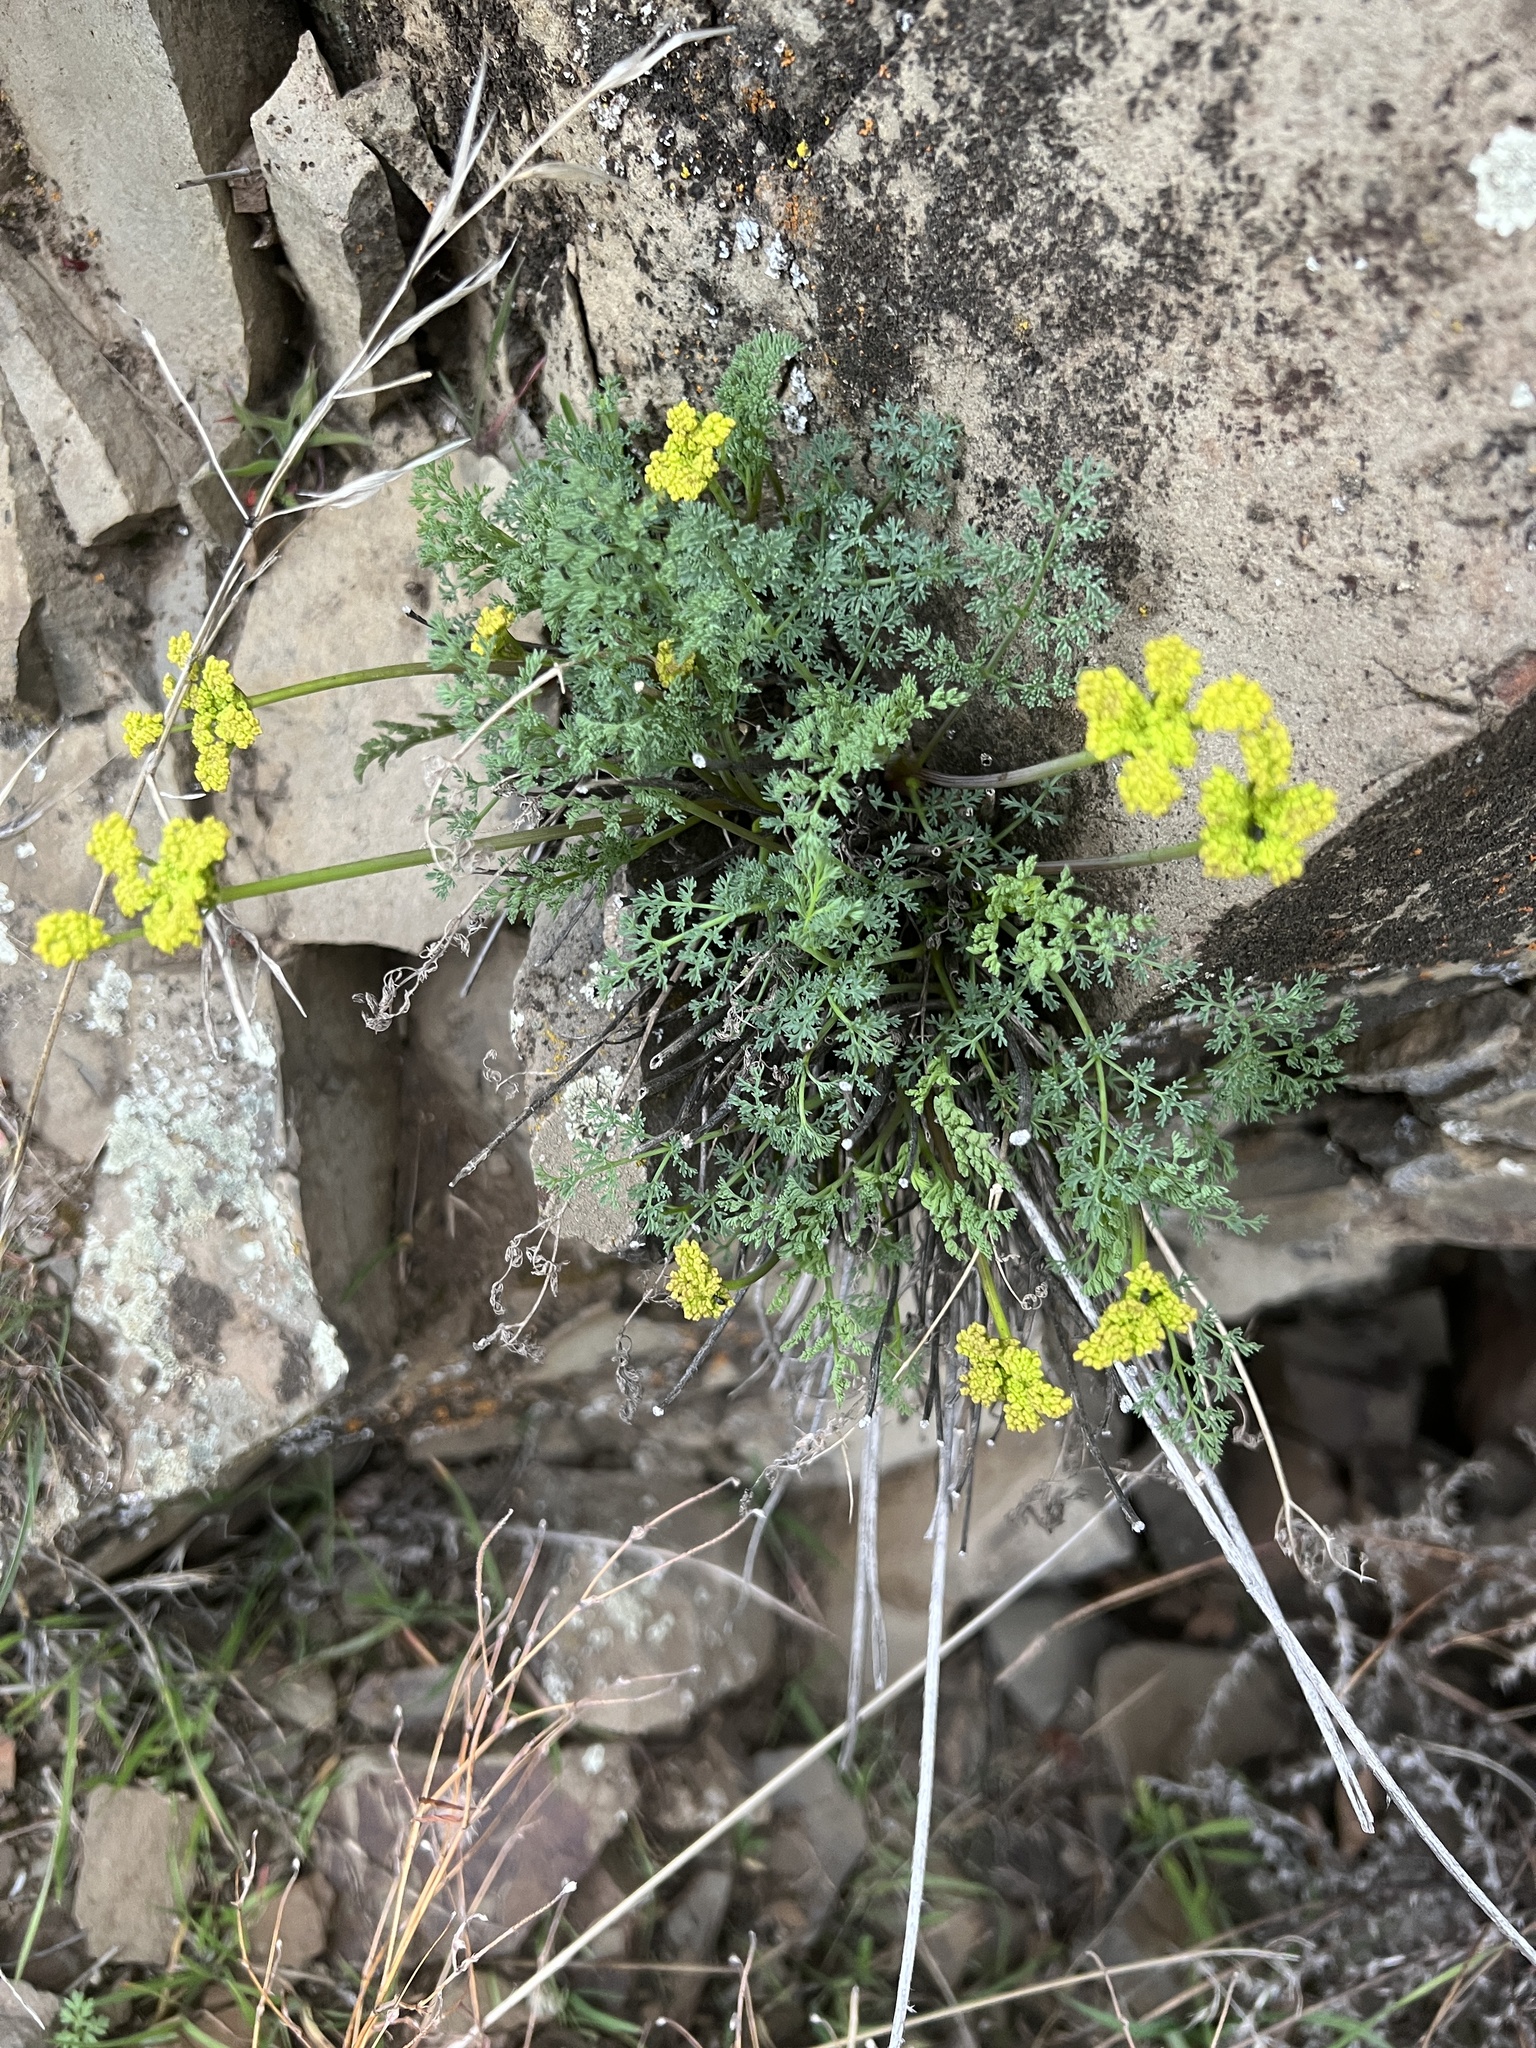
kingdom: Plantae
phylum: Tracheophyta
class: Magnoliopsida
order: Apiales
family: Apiaceae
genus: Lomatium
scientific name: Lomatium papilioniferum
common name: Butterfly lomatium
